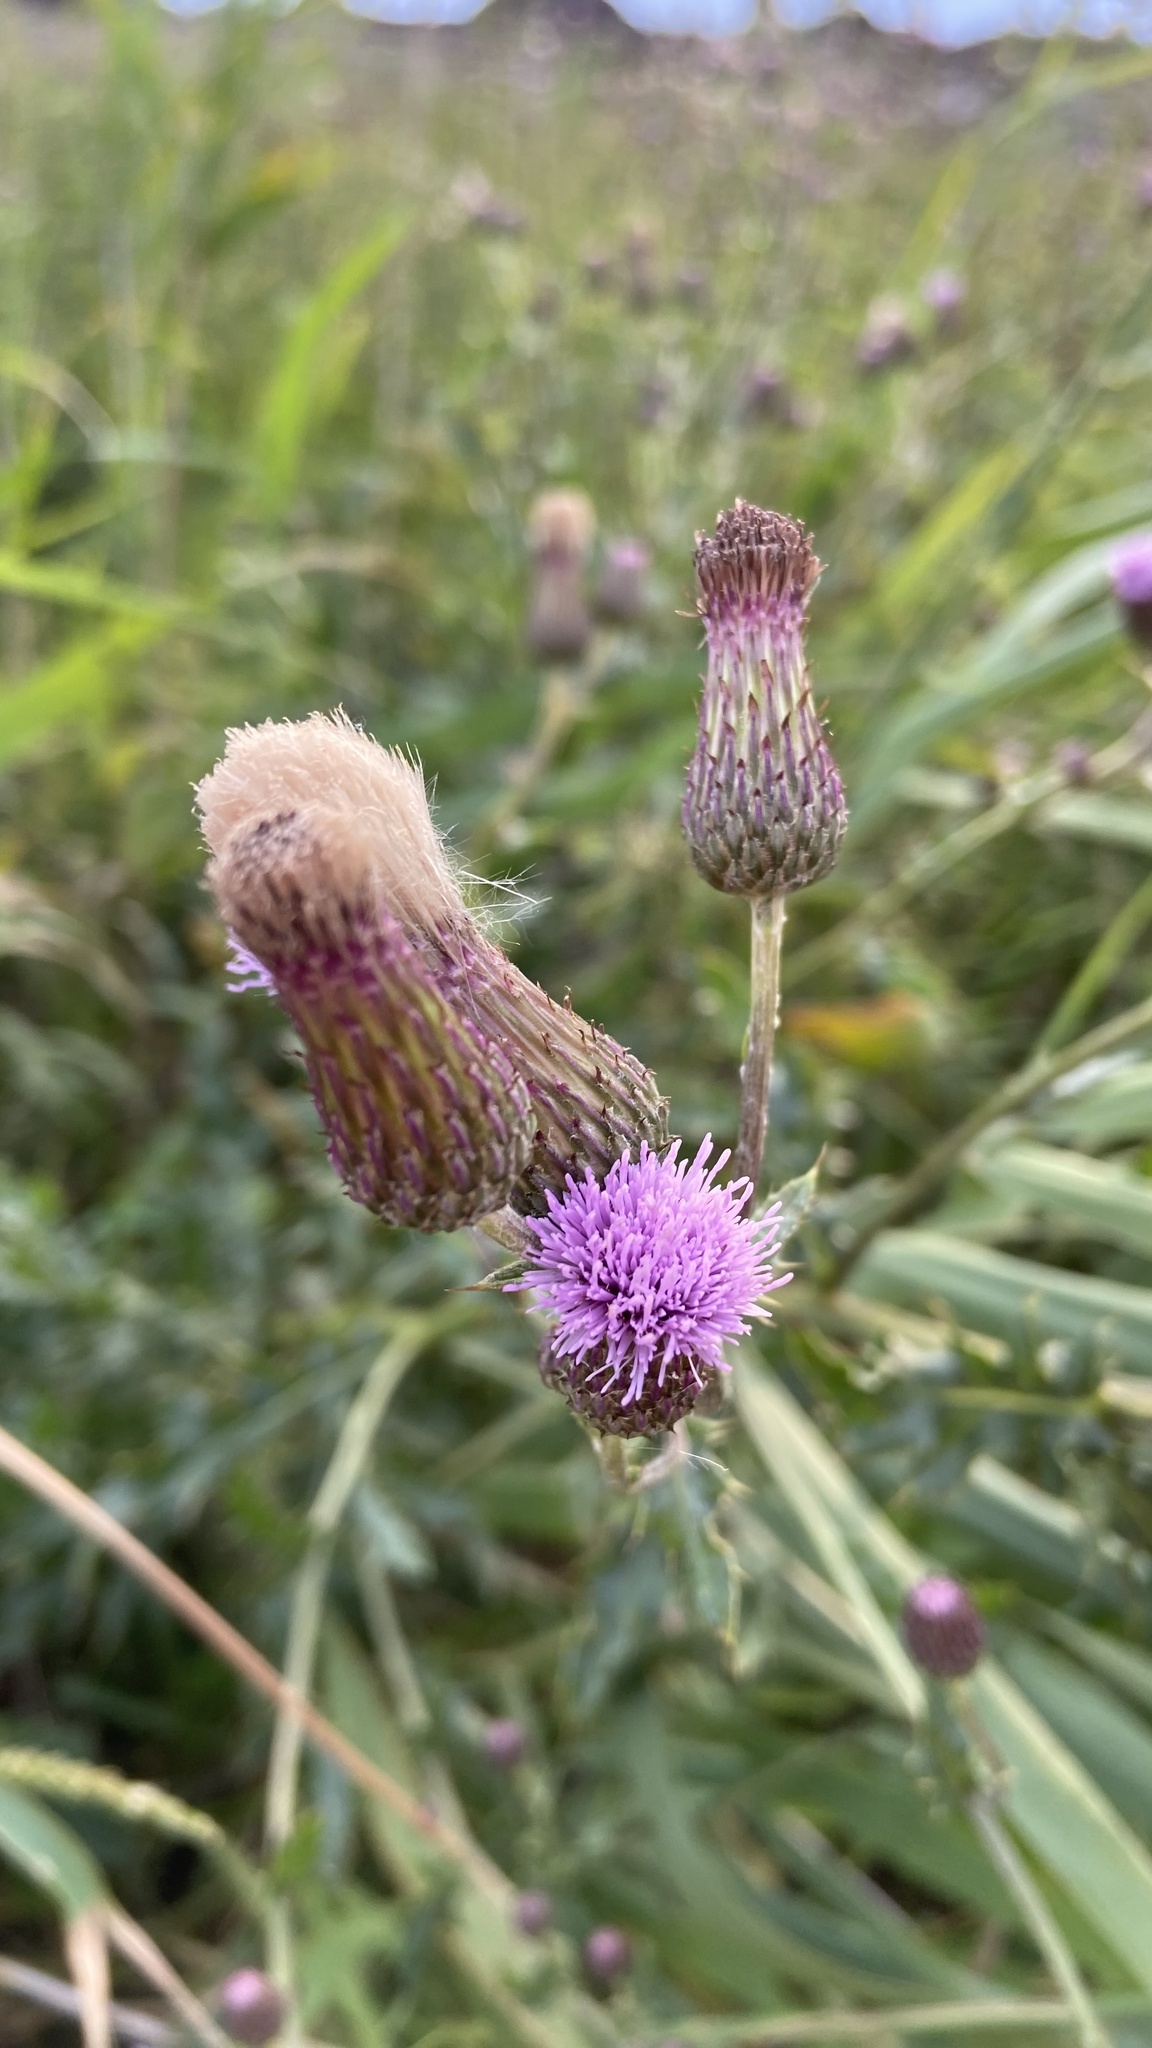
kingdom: Plantae
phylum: Tracheophyta
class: Magnoliopsida
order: Asterales
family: Asteraceae
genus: Cirsium
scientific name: Cirsium arvense
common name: Creeping thistle
